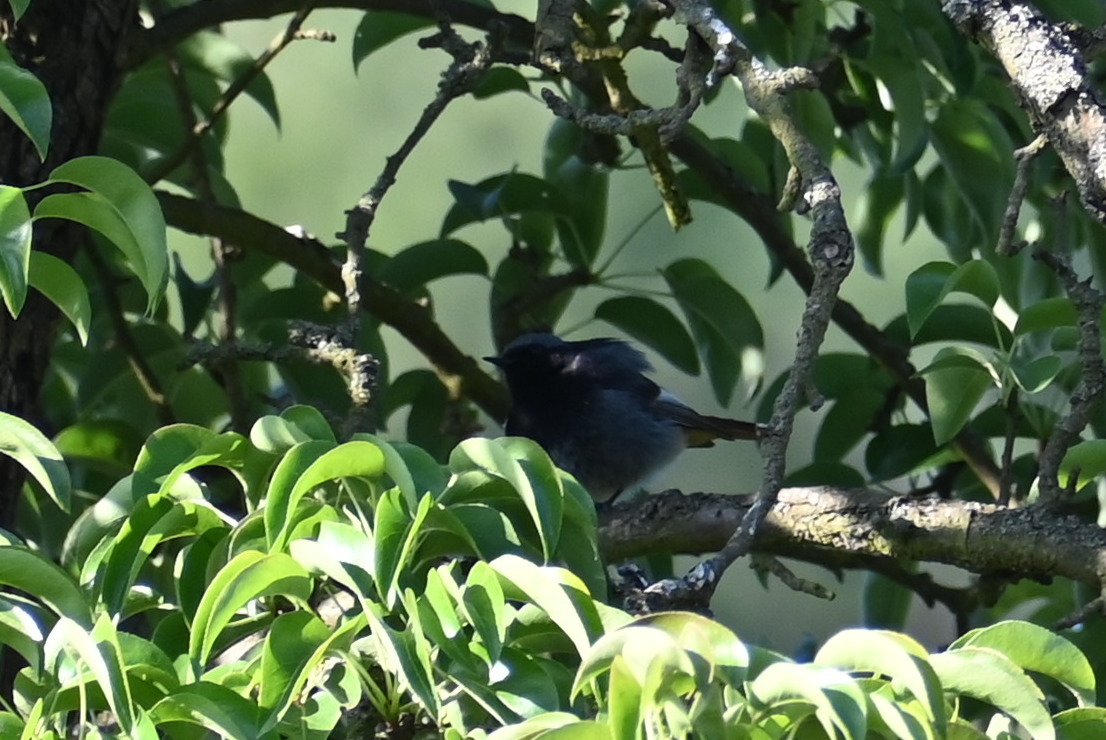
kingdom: Animalia
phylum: Chordata
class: Aves
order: Passeriformes
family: Muscicapidae
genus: Phoenicurus
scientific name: Phoenicurus ochruros
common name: Black redstart
